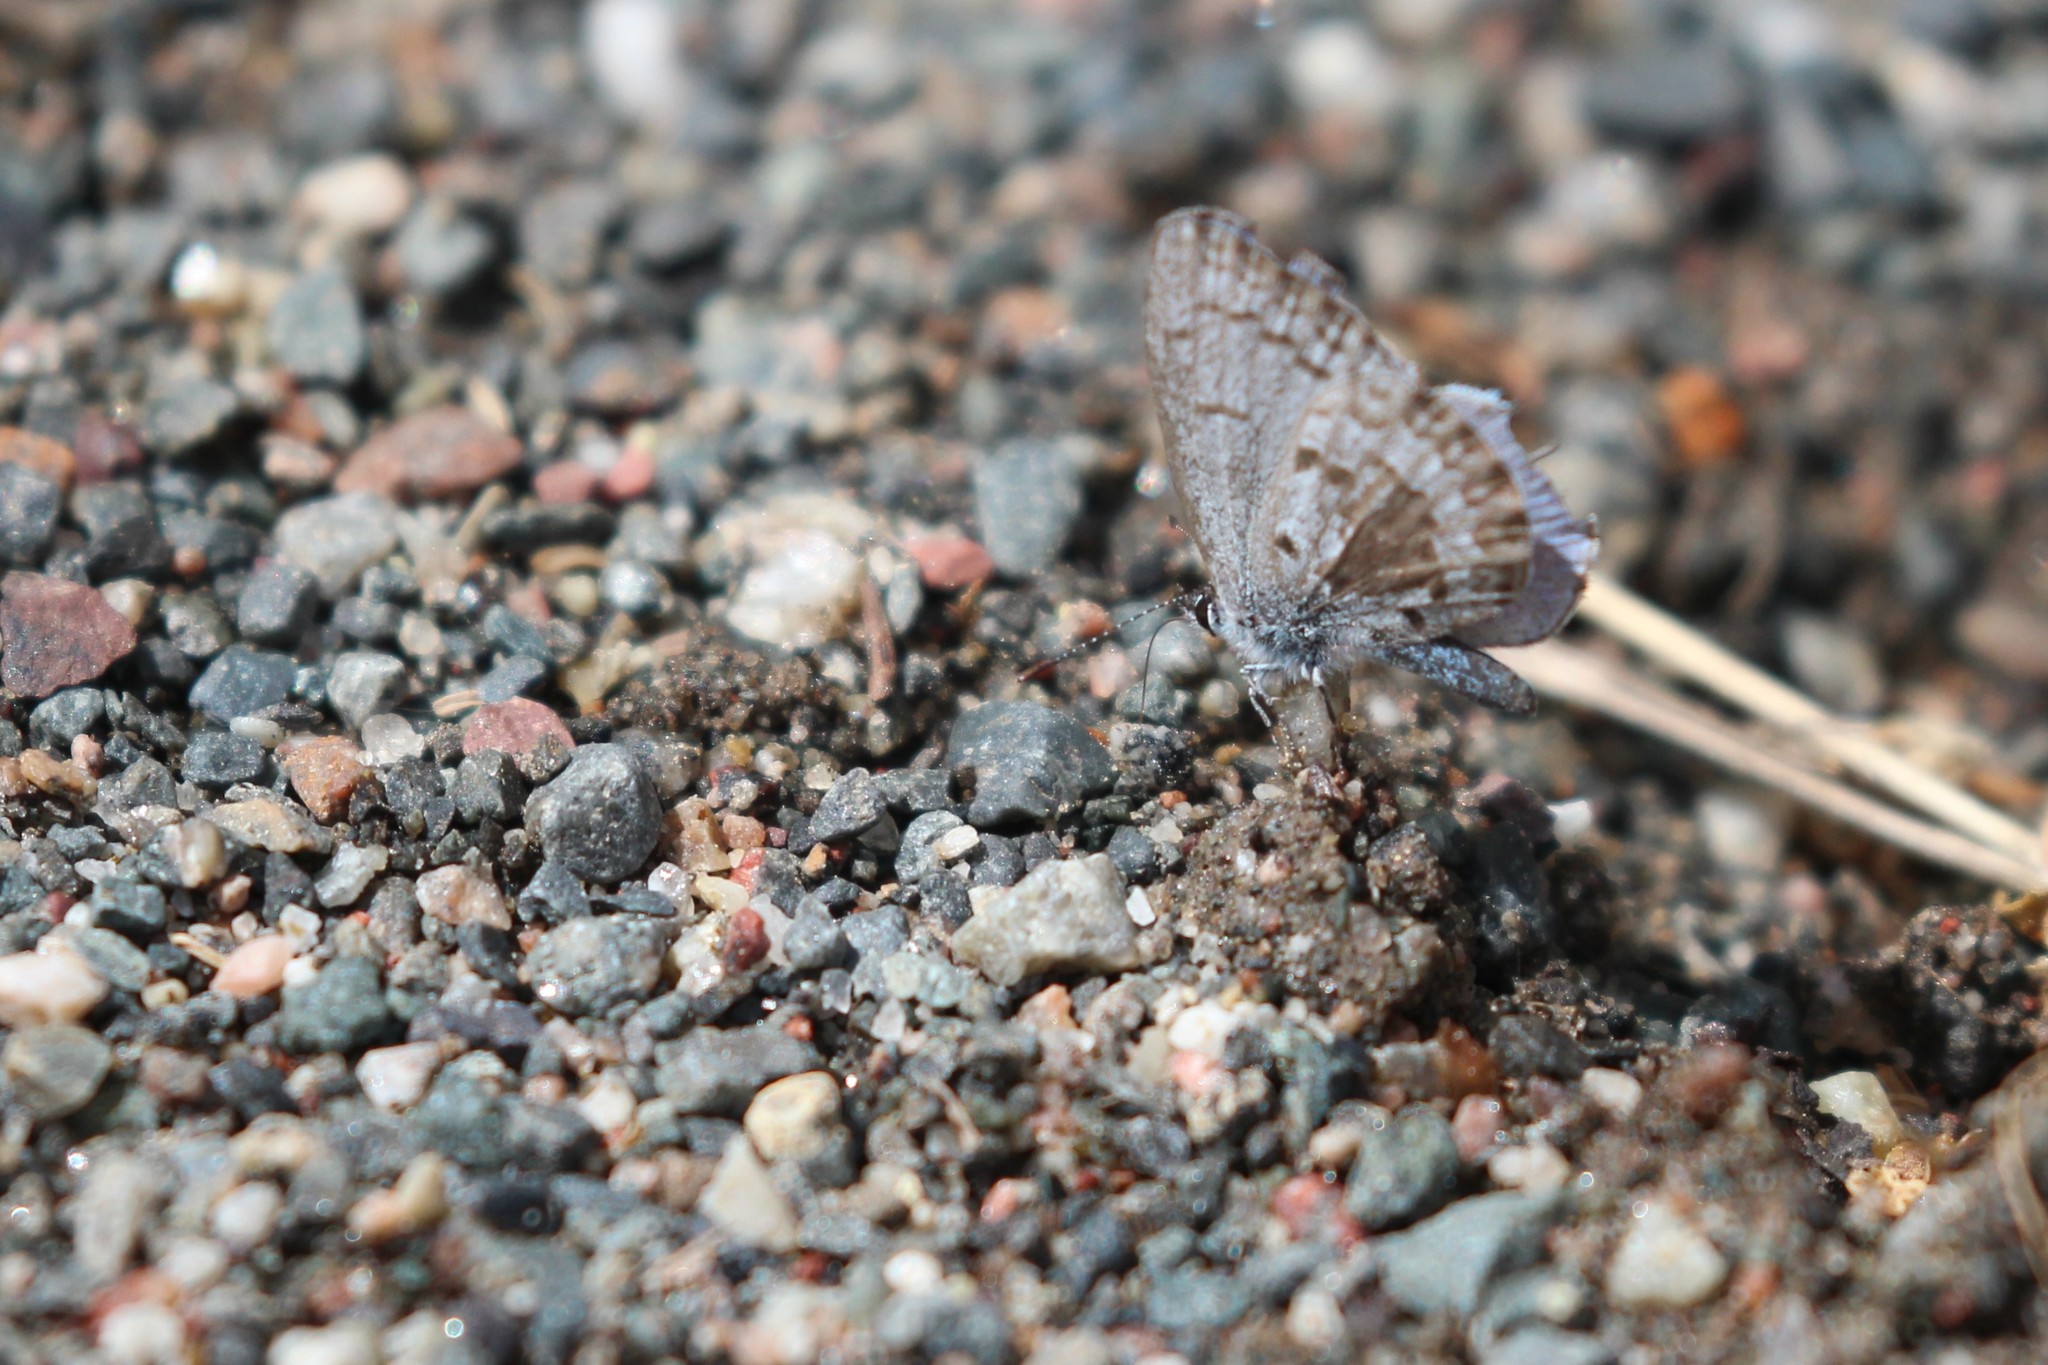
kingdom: Animalia
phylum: Arthropoda
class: Insecta
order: Lepidoptera
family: Lycaenidae
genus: Celastrina
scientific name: Celastrina lucia
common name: Lucia azure
